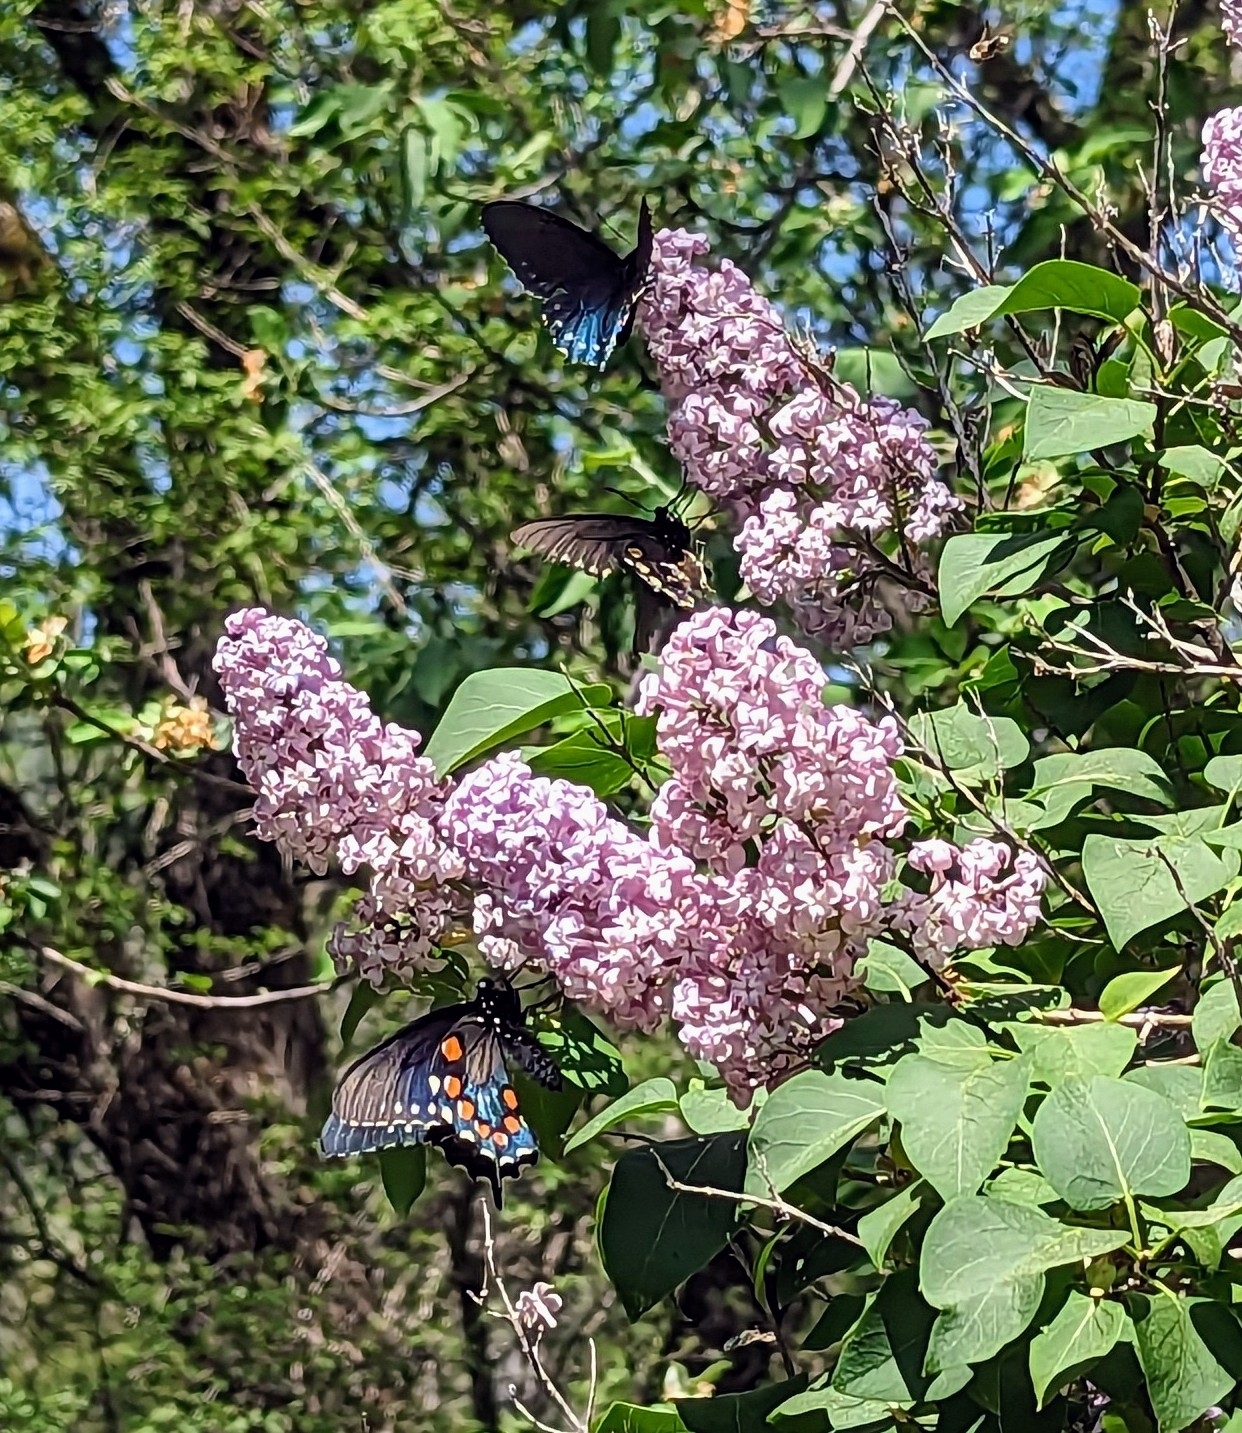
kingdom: Animalia
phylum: Arthropoda
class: Insecta
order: Lepidoptera
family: Papilionidae
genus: Battus
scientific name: Battus philenor
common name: Pipevine swallowtail
